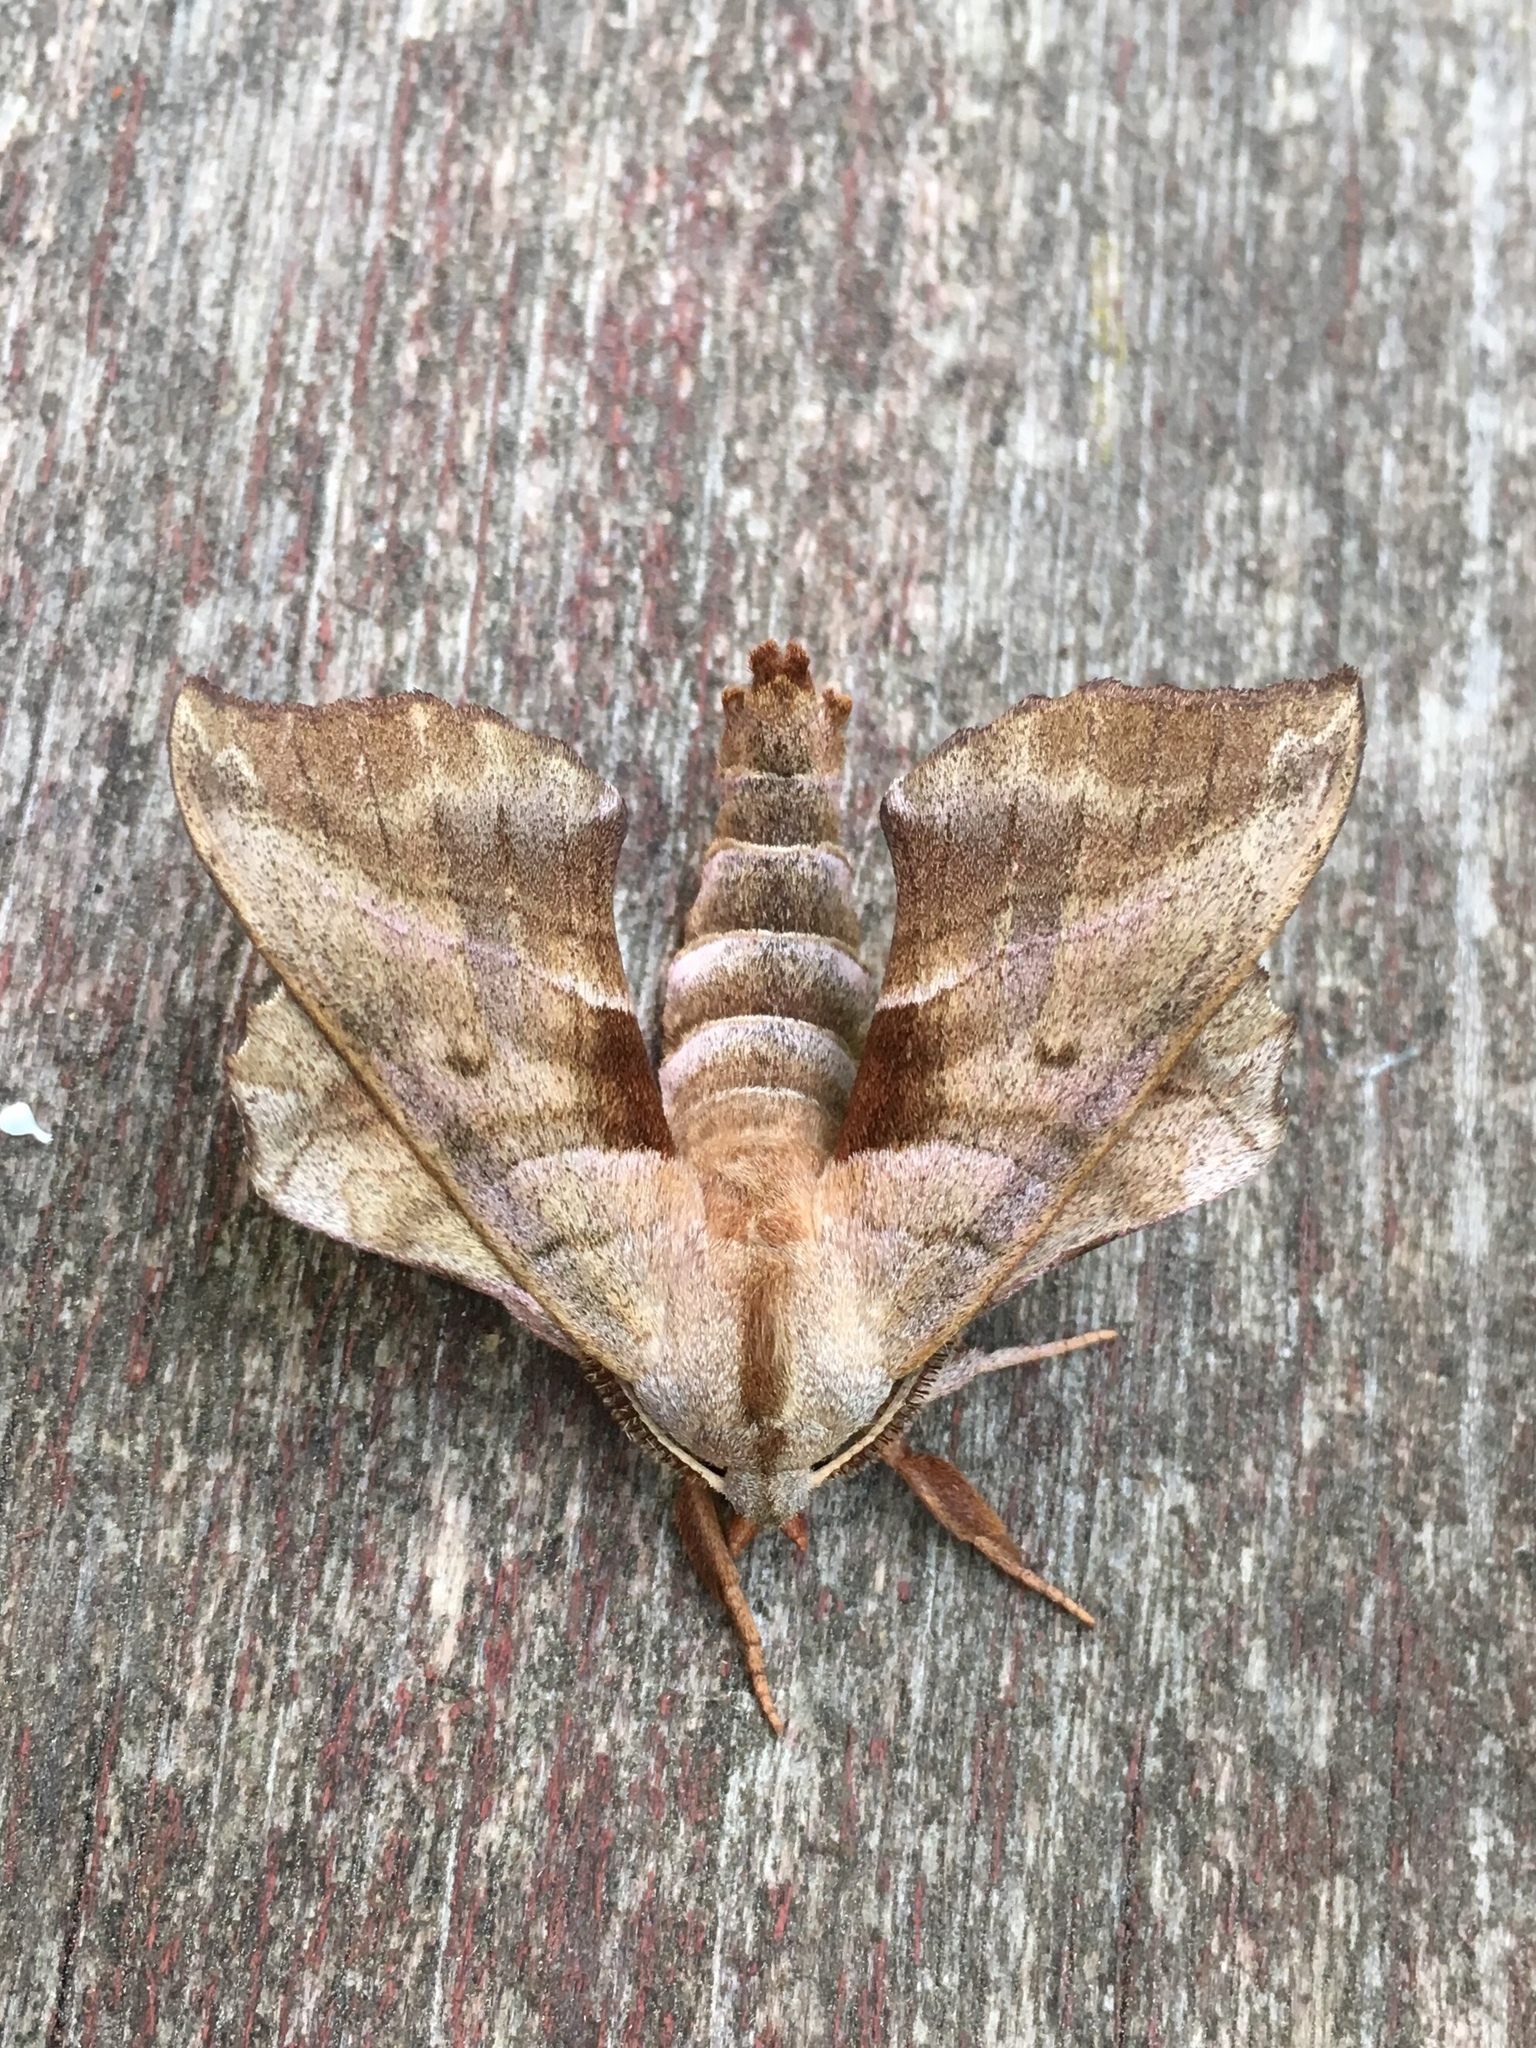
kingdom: Animalia
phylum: Arthropoda
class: Insecta
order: Lepidoptera
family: Sphingidae
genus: Amorpha
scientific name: Amorpha juglandis
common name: Walnut sphinx
